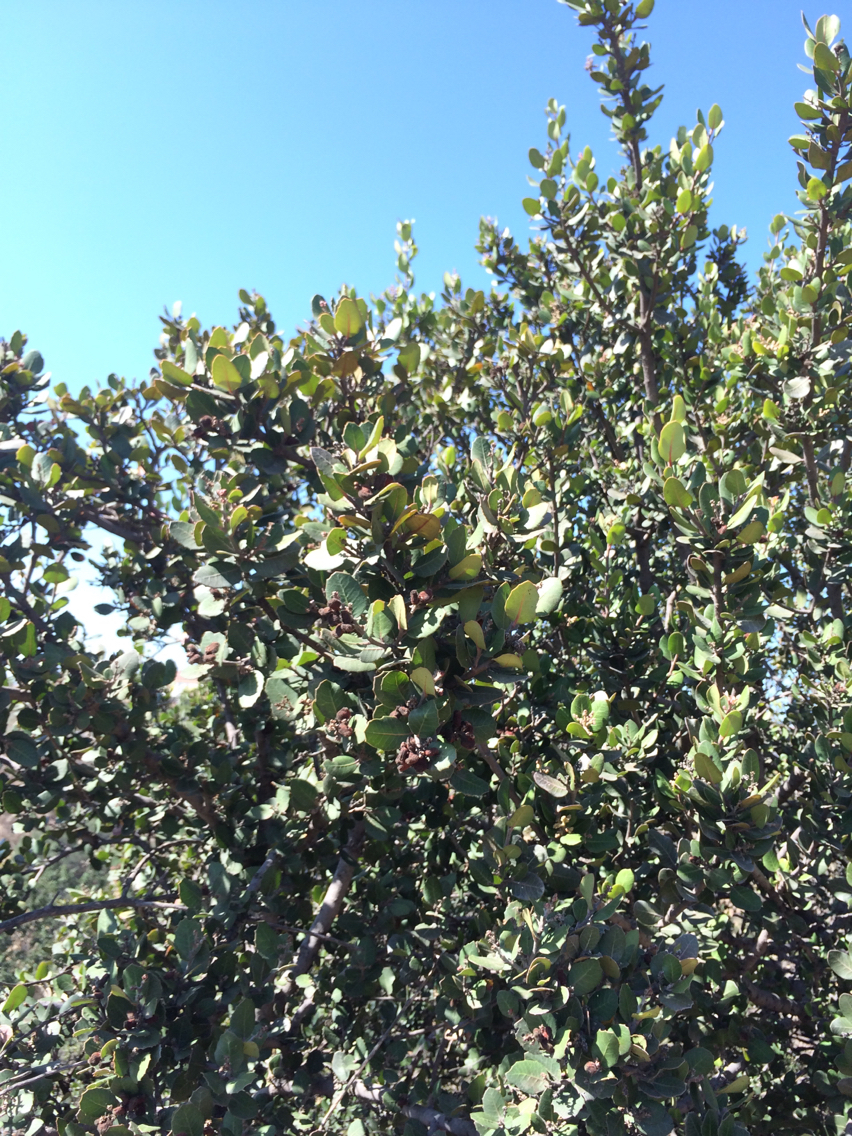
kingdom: Plantae
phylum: Tracheophyta
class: Magnoliopsida
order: Sapindales
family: Anacardiaceae
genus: Rhus
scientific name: Rhus integrifolia
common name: Lemonade sumac
